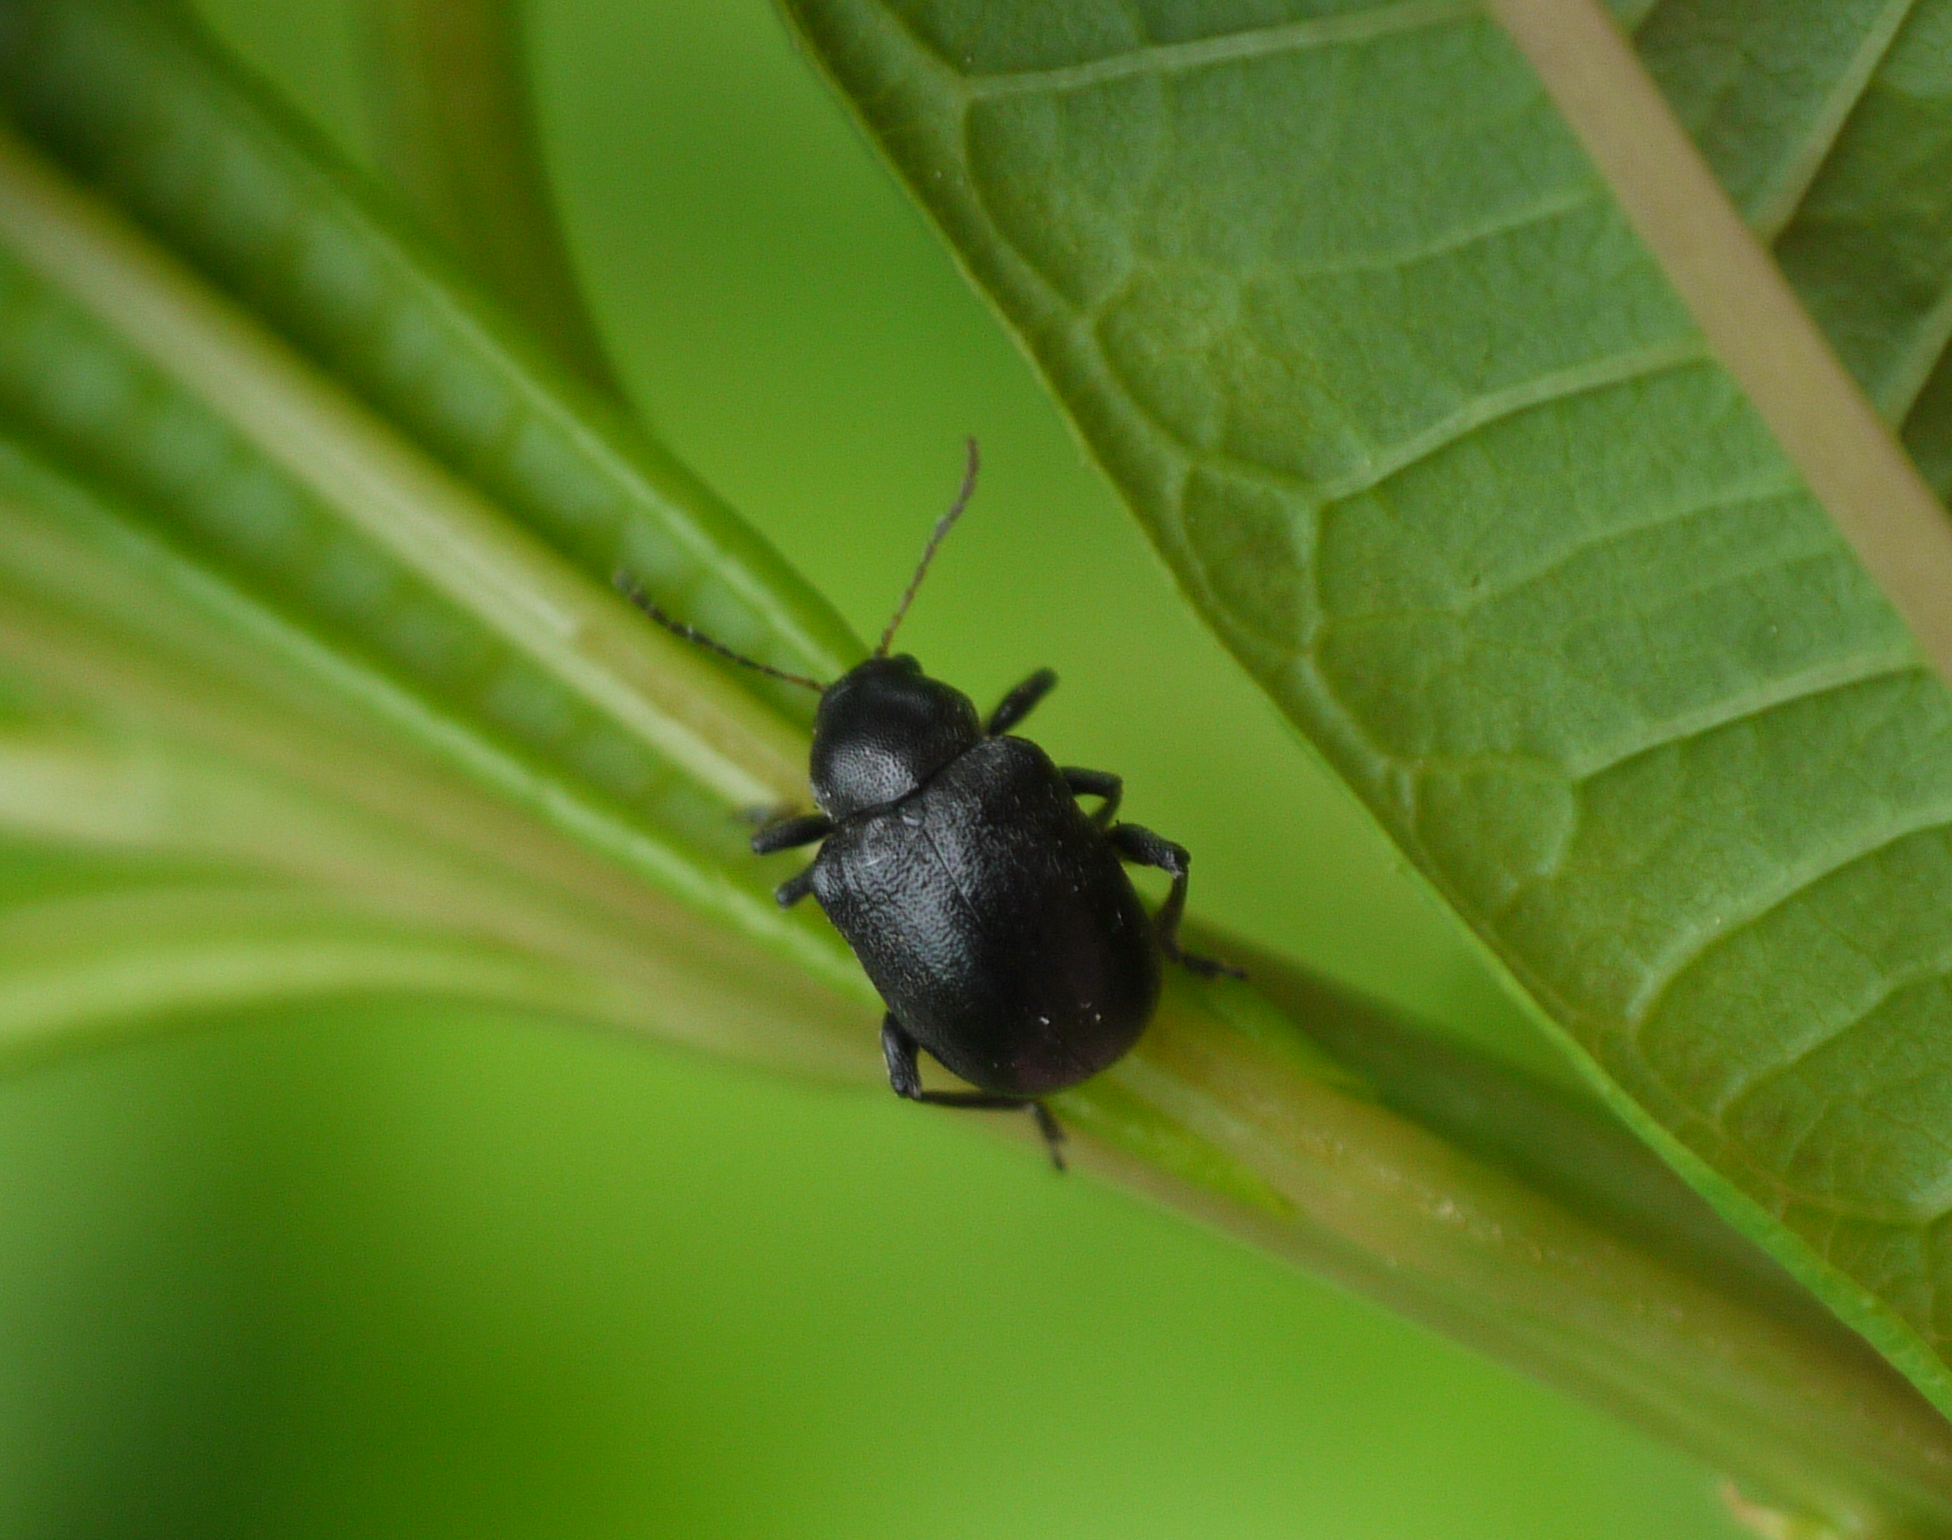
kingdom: Animalia
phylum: Arthropoda
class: Insecta
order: Coleoptera
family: Chrysomelidae
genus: Bromius
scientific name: Bromius obscurus
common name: Western grape rootworm
